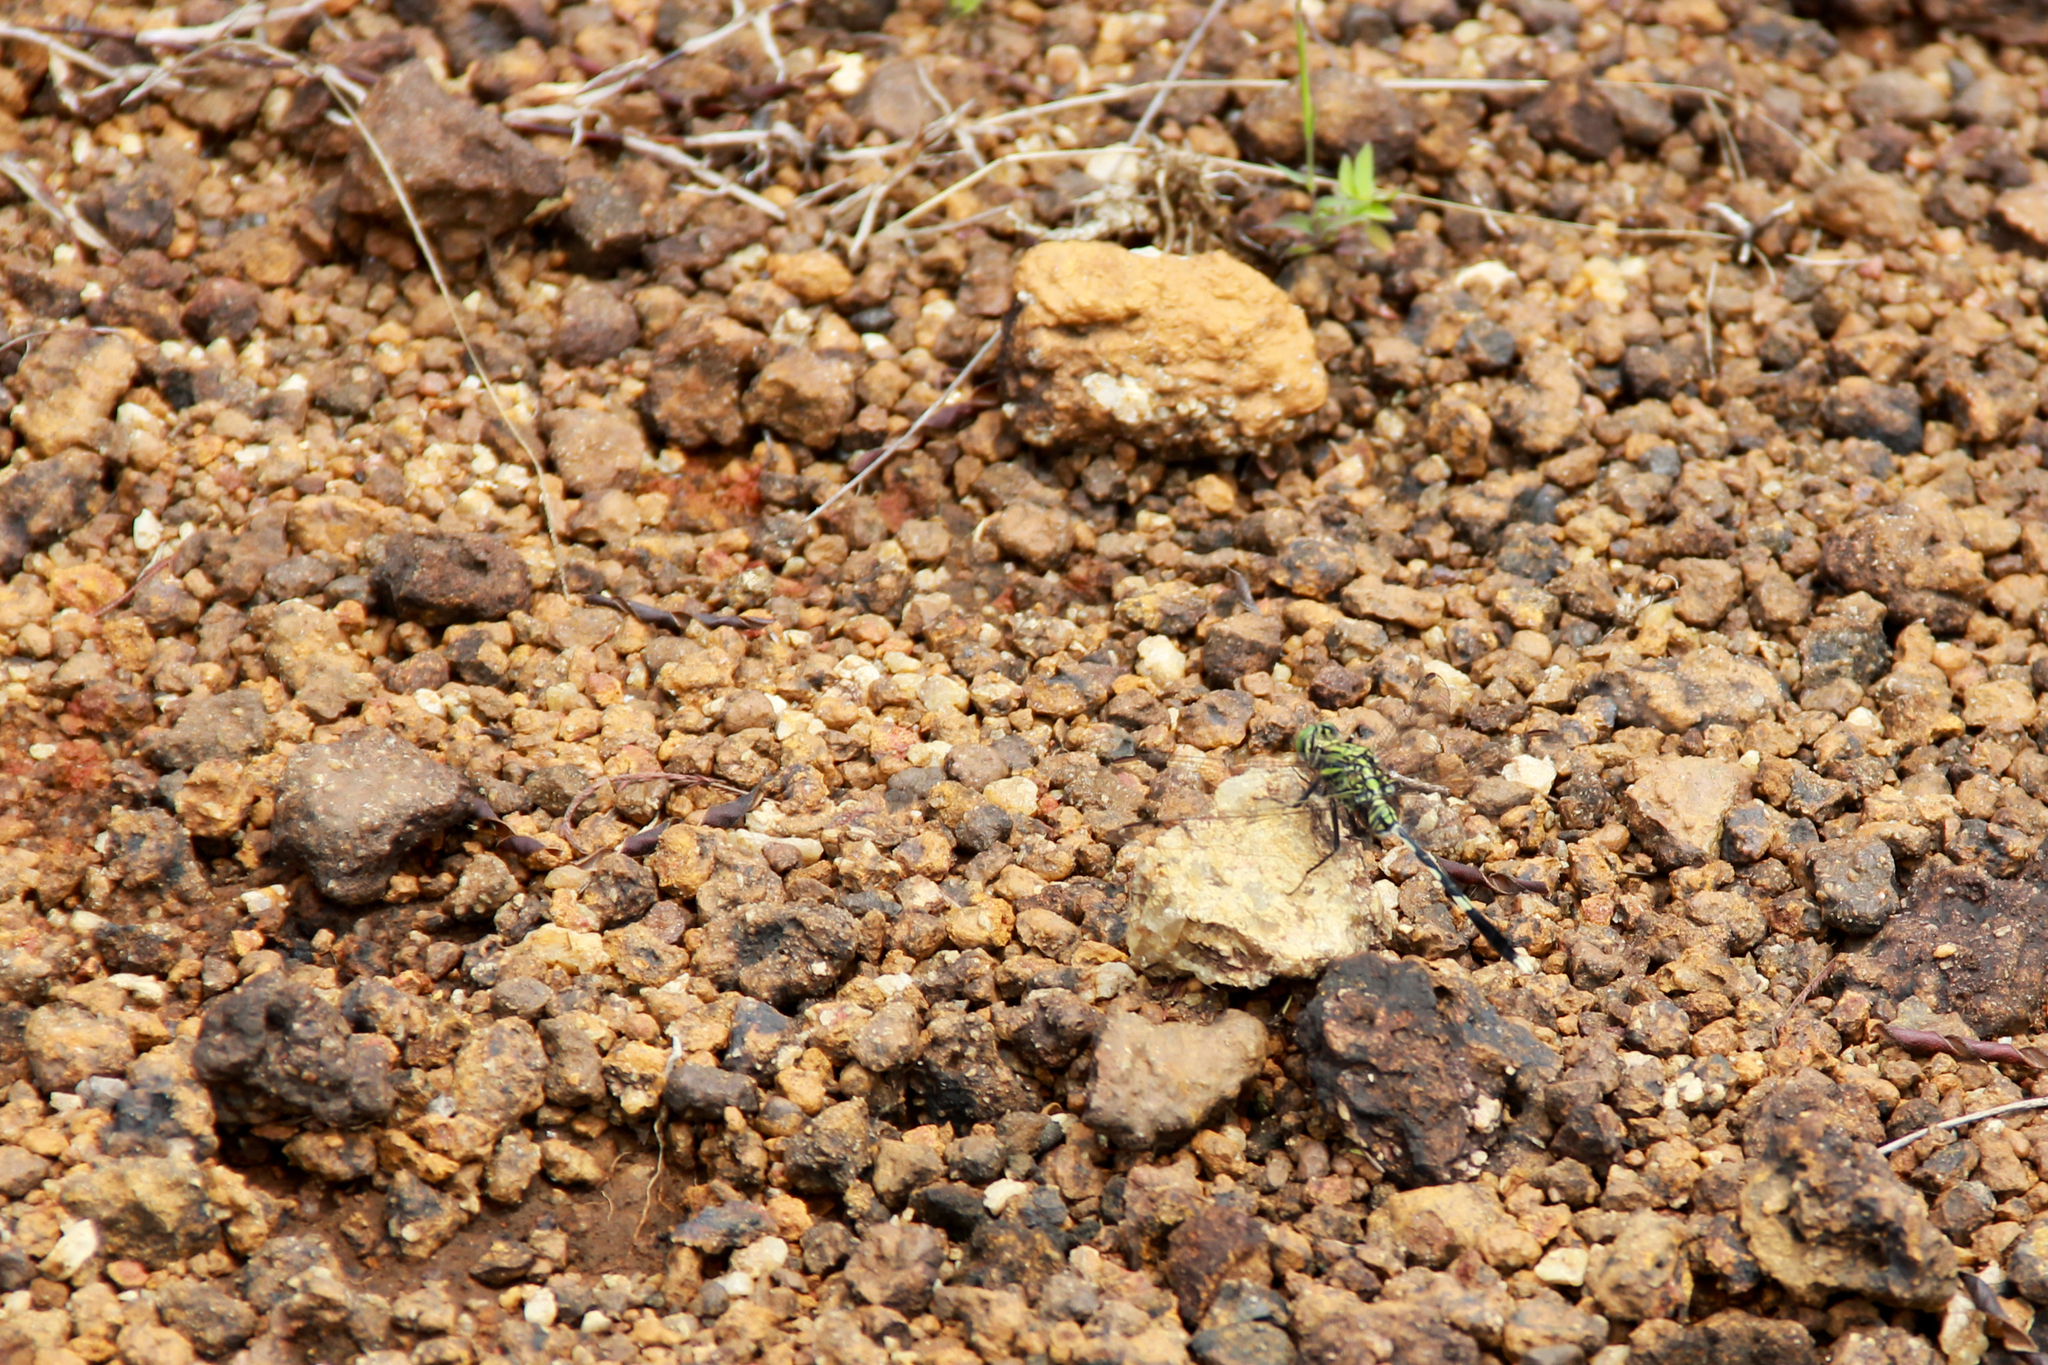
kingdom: Animalia
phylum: Arthropoda
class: Insecta
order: Odonata
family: Libellulidae
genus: Orthetrum
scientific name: Orthetrum sabina
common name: Slender skimmer
